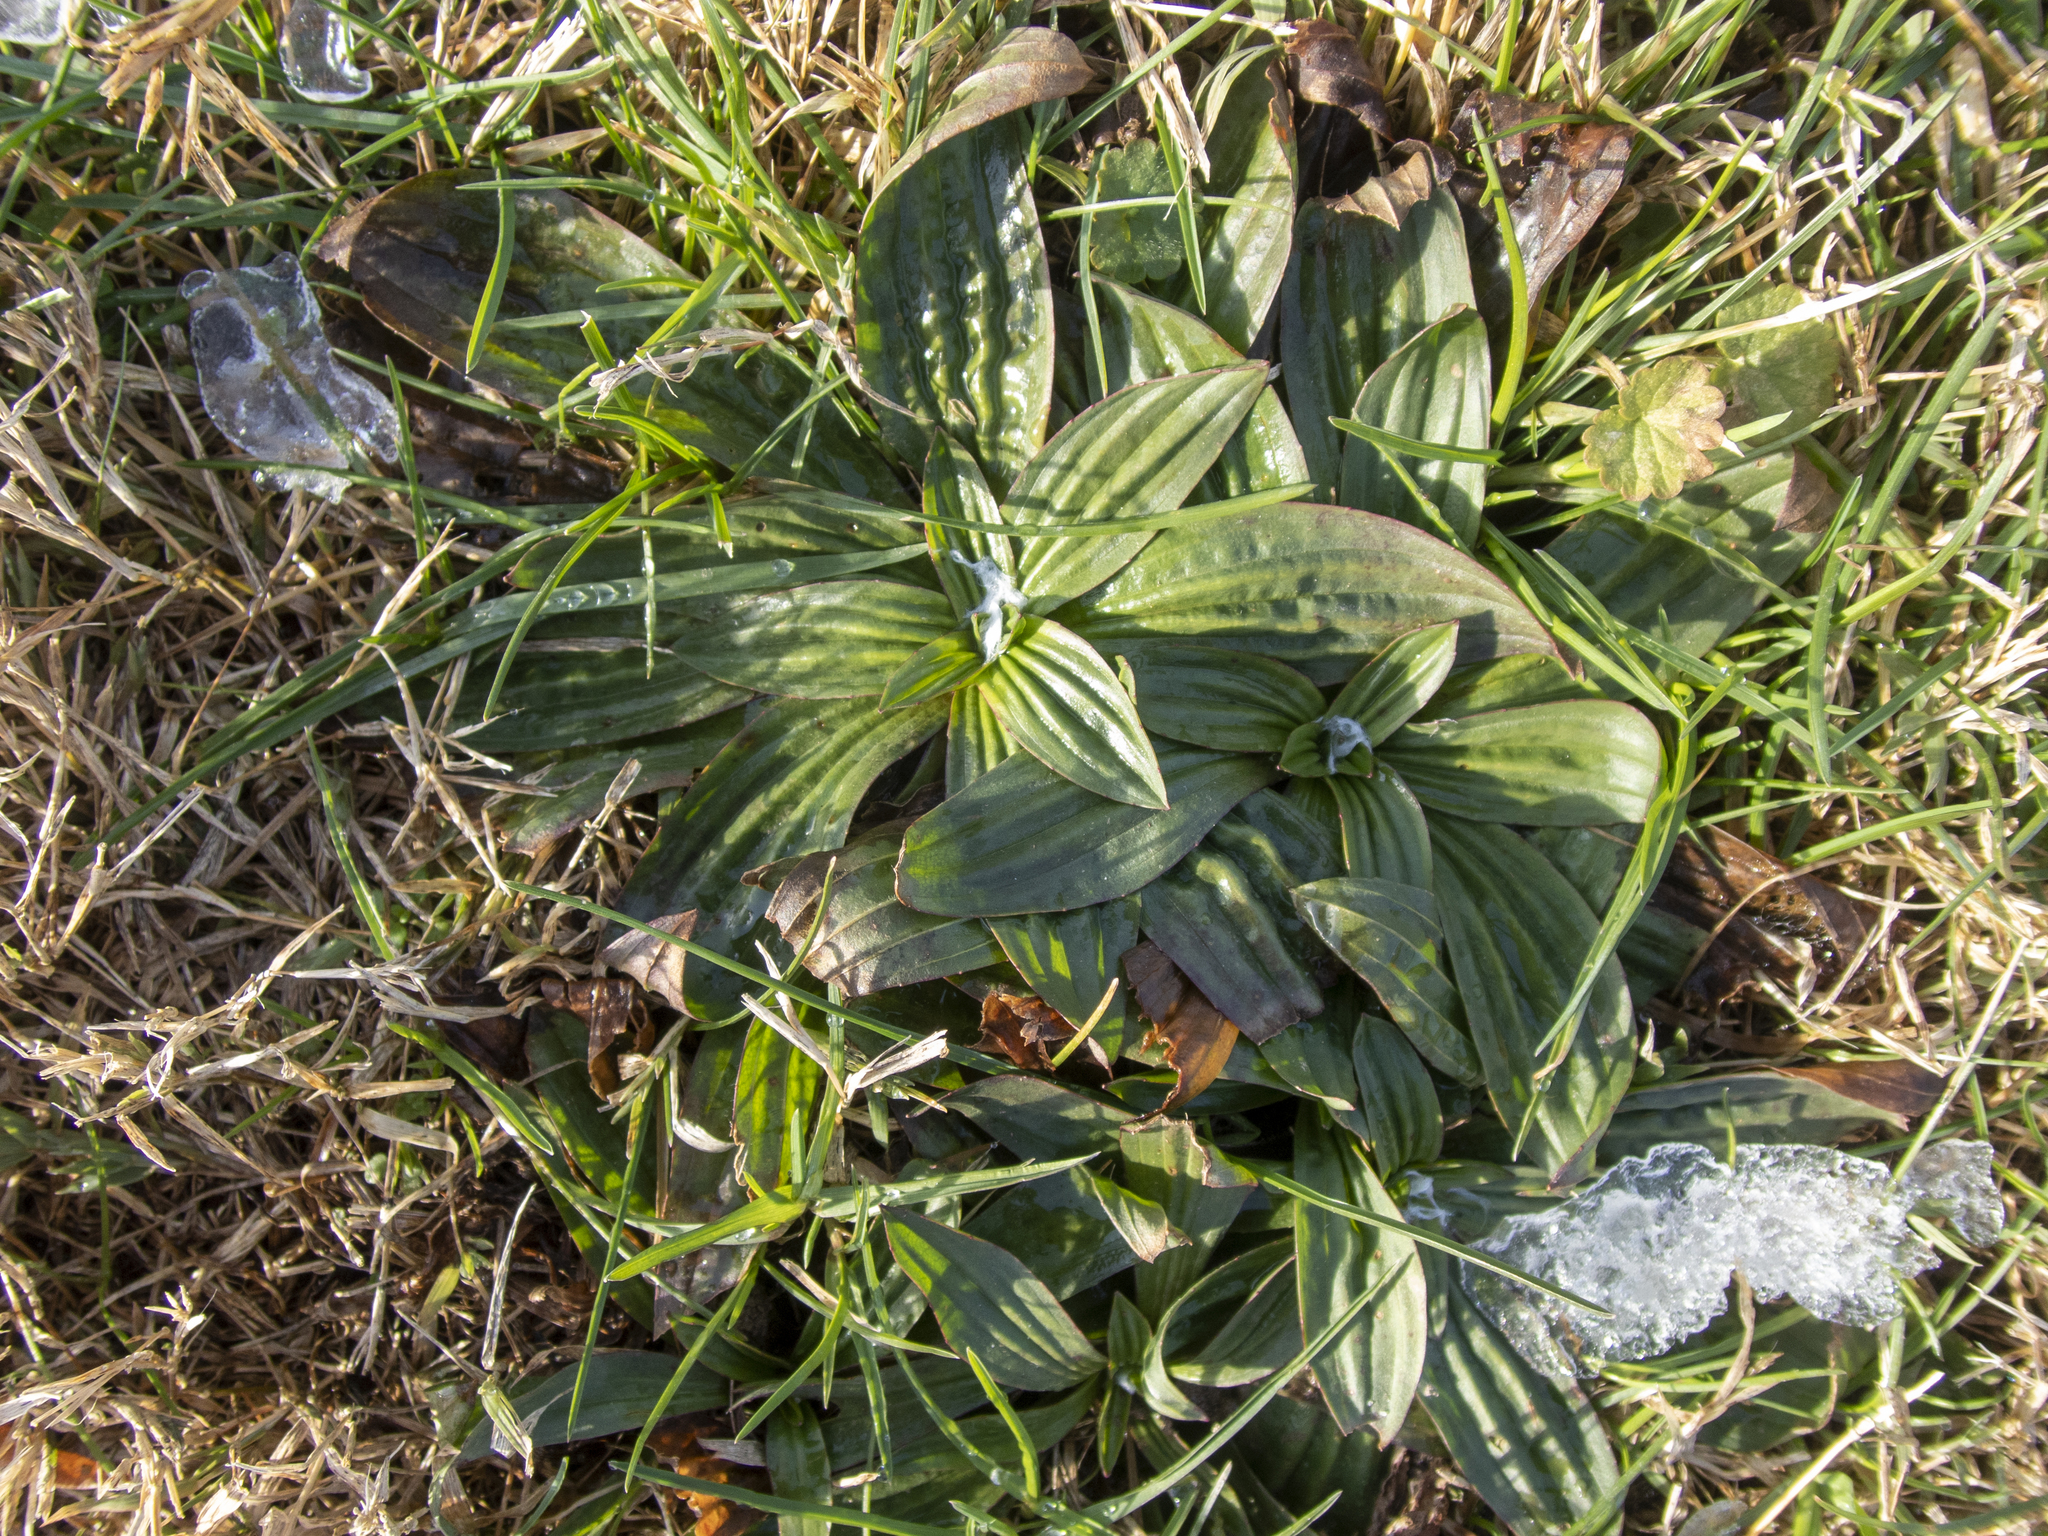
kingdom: Plantae
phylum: Tracheophyta
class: Magnoliopsida
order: Lamiales
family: Plantaginaceae
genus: Plantago
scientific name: Plantago lanceolata
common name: Ribwort plantain
